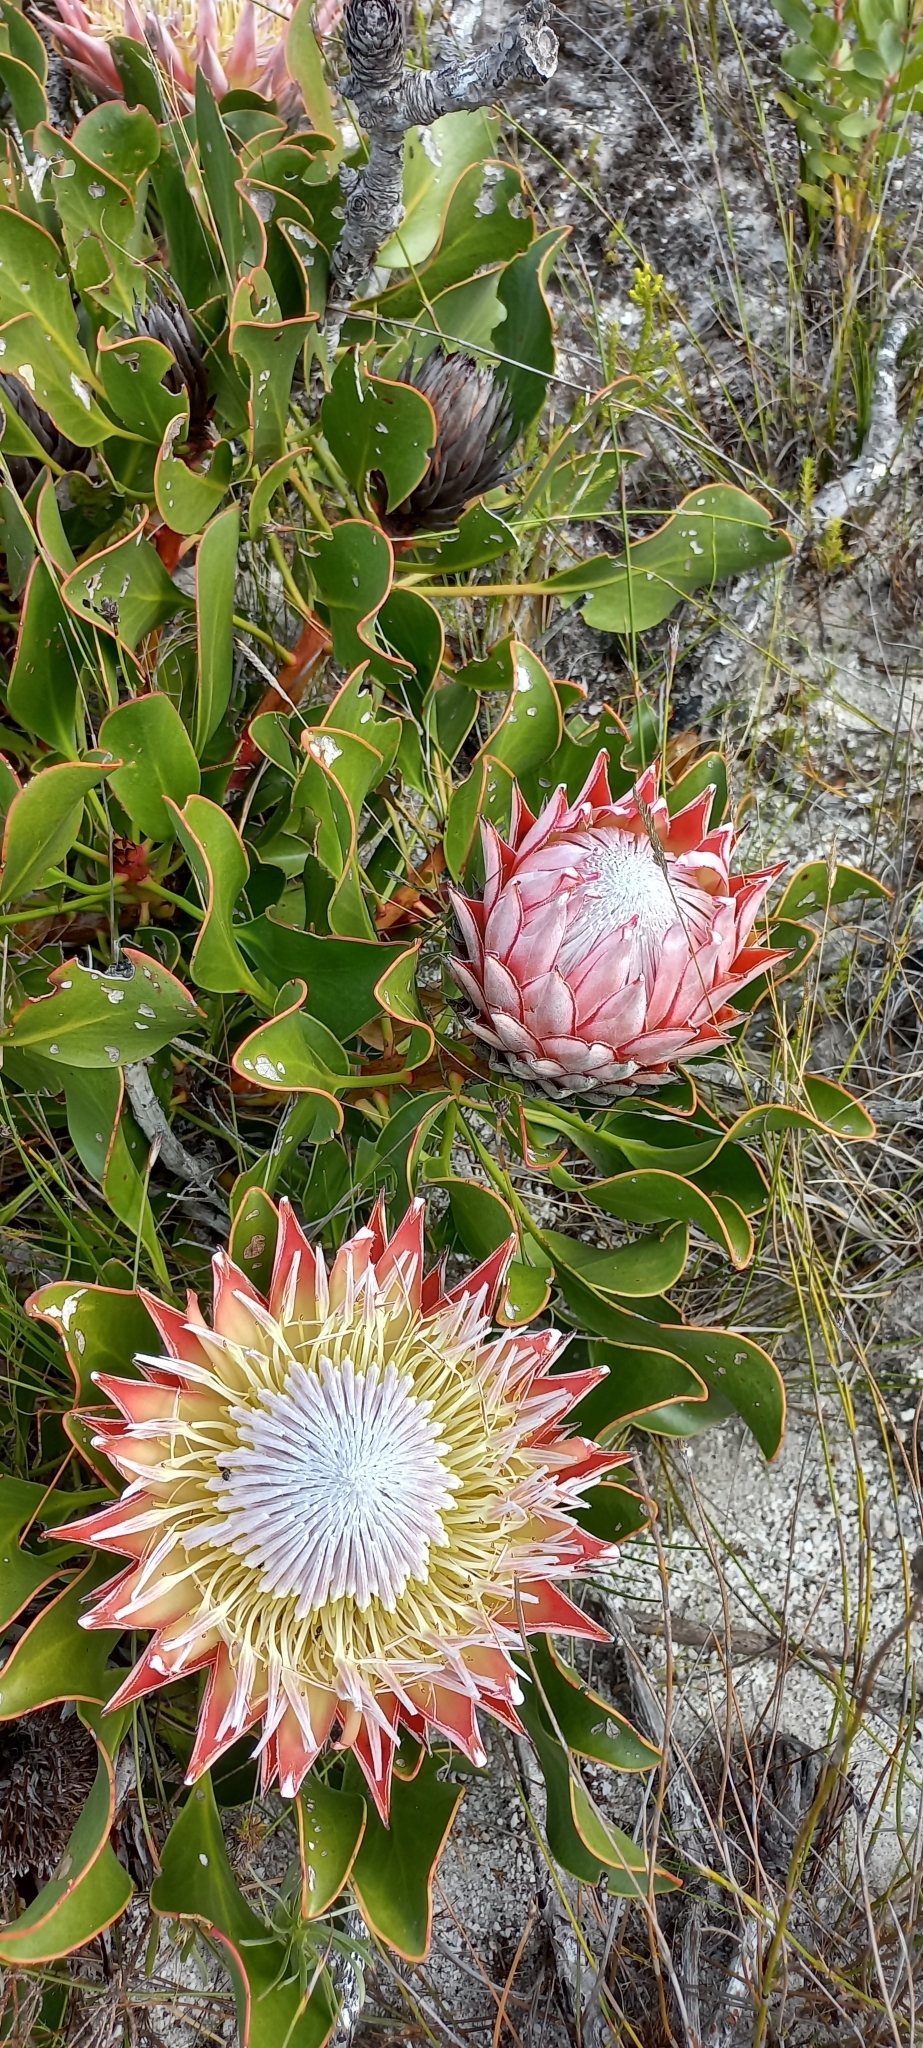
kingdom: Plantae
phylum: Tracheophyta
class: Magnoliopsida
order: Proteales
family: Proteaceae
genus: Protea
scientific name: Protea cynaroides
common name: King protea
